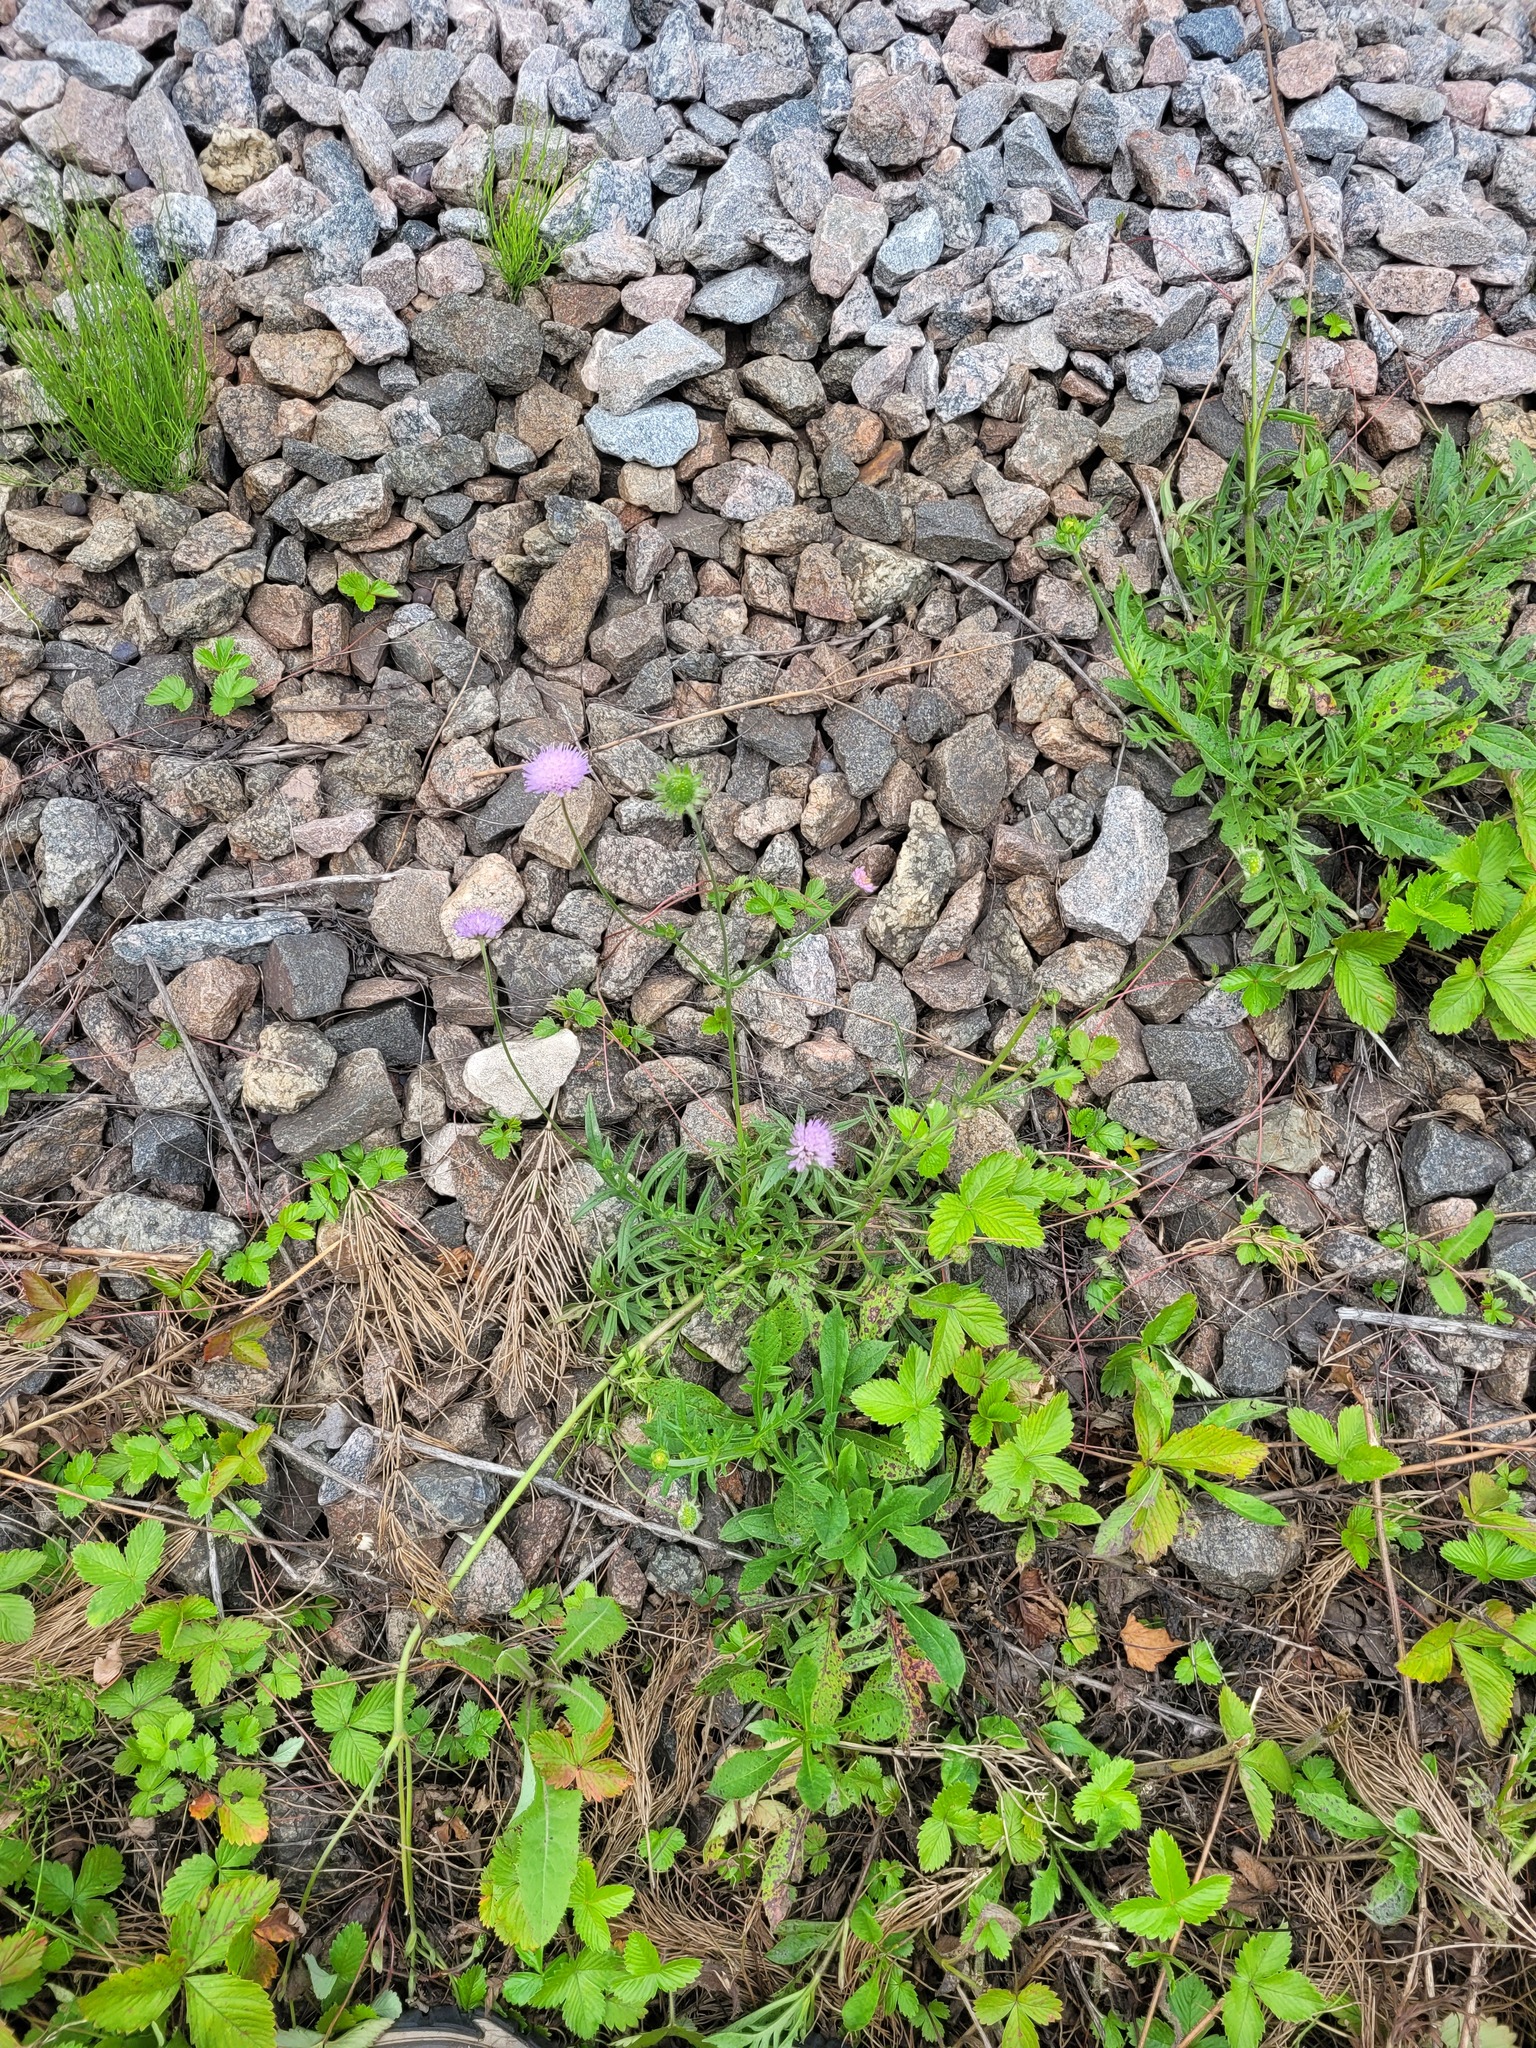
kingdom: Plantae
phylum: Tracheophyta
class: Magnoliopsida
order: Dipsacales
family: Caprifoliaceae
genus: Knautia
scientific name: Knautia arvensis
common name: Field scabiosa
